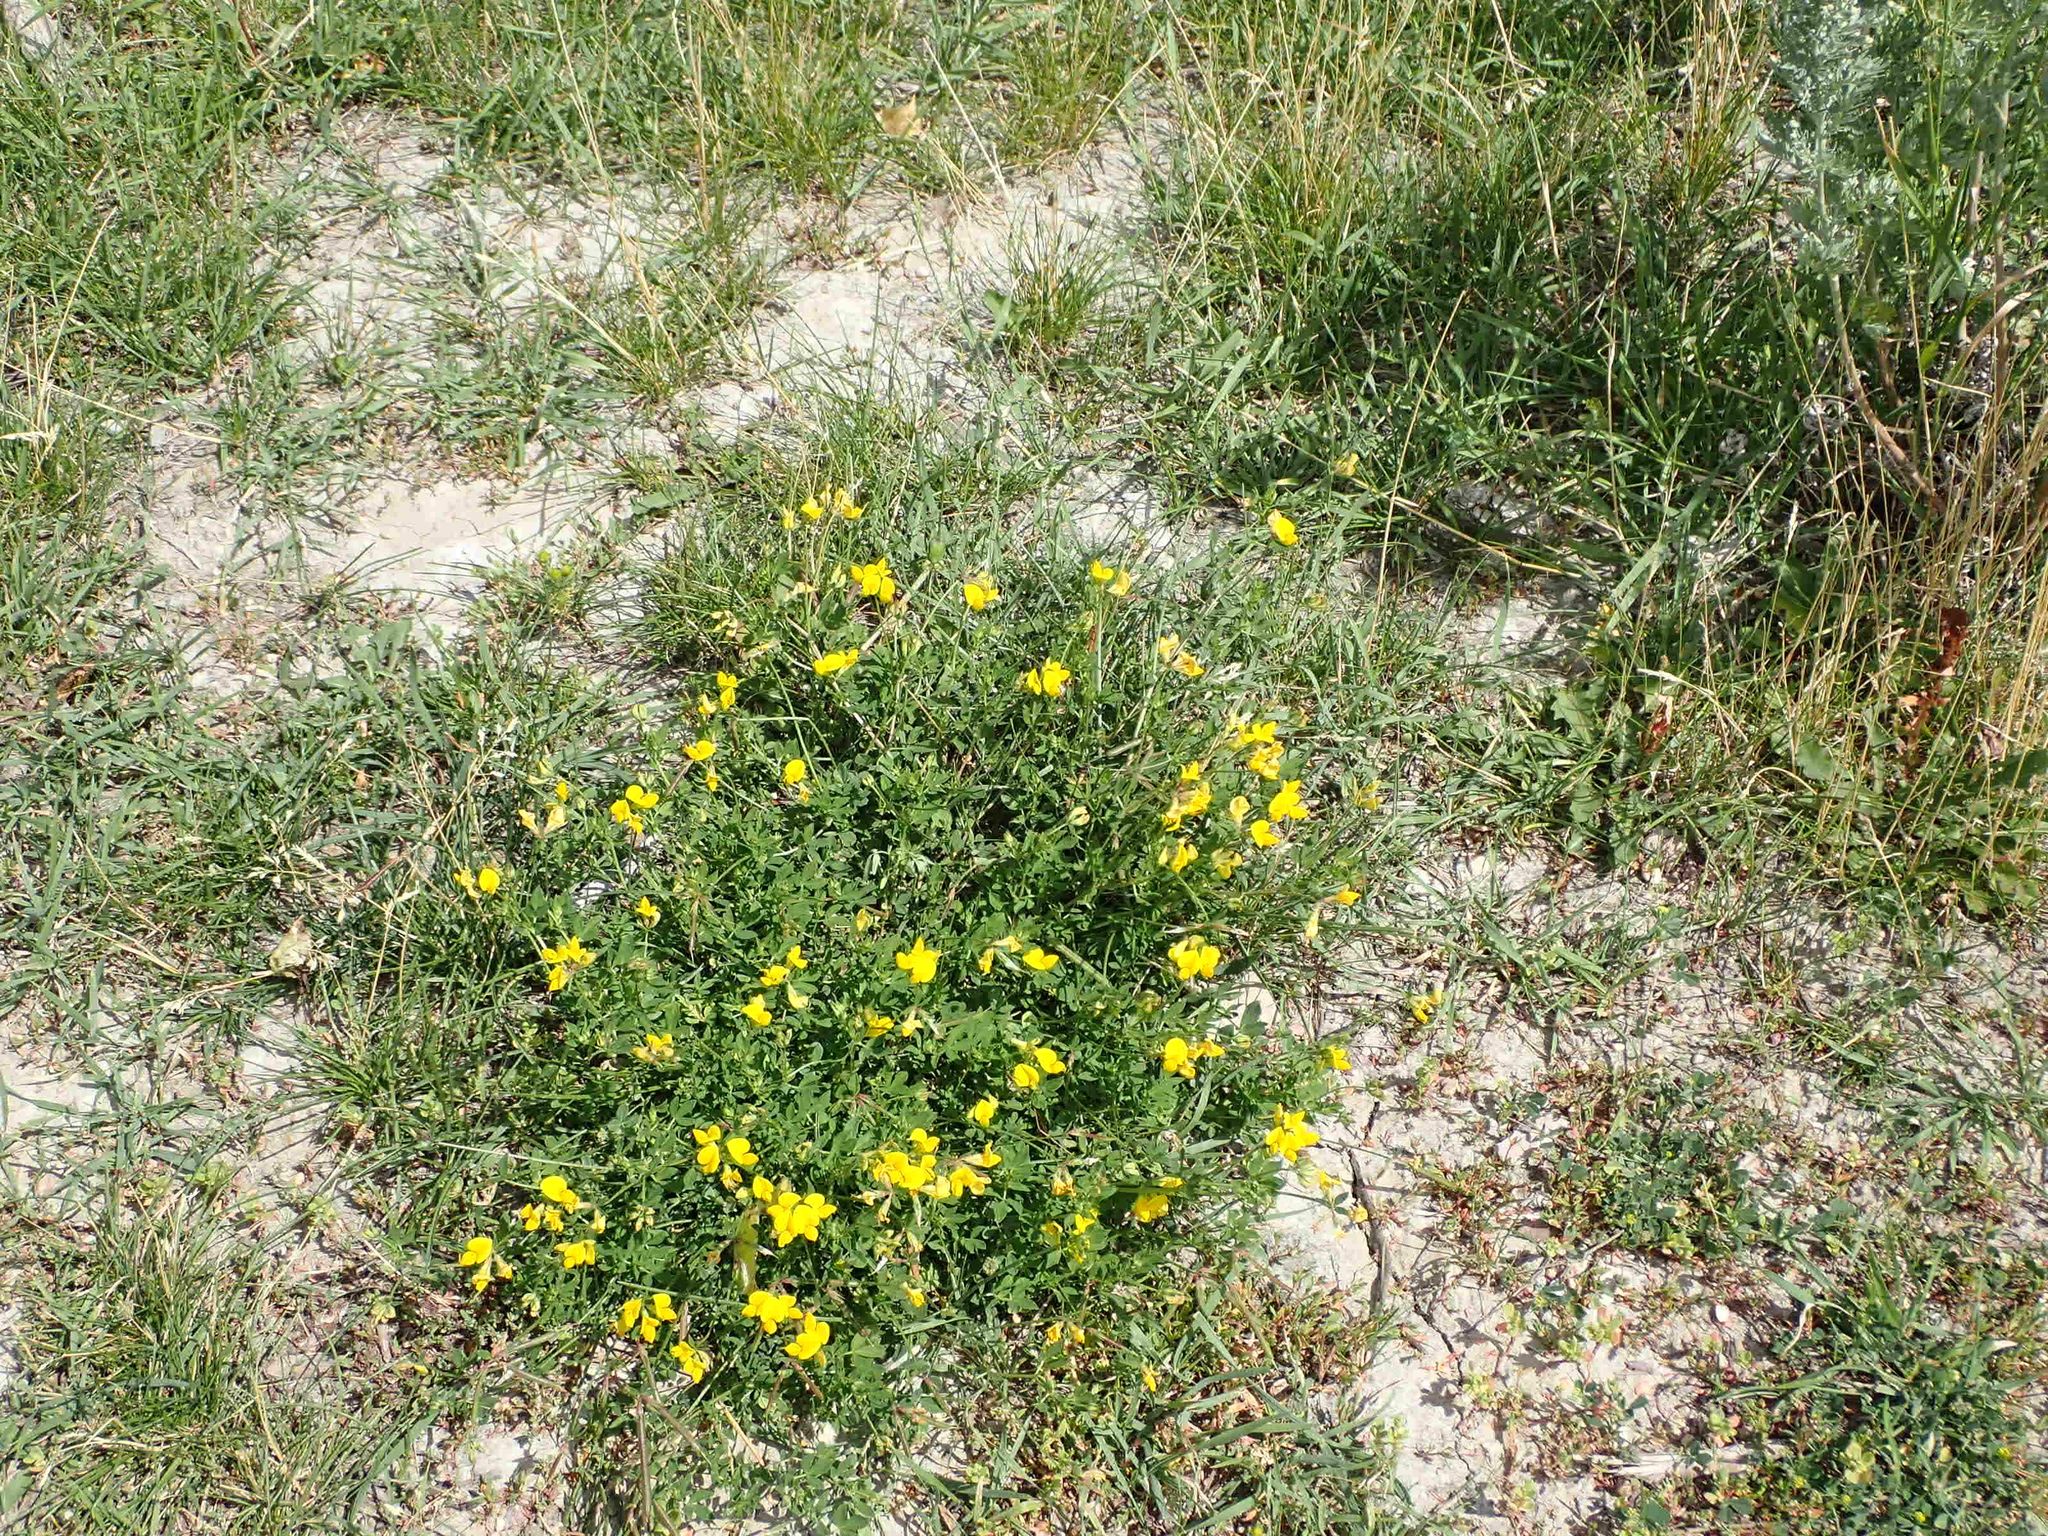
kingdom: Plantae
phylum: Tracheophyta
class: Magnoliopsida
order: Fabales
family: Fabaceae
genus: Lotus
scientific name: Lotus corniculatus
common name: Common bird's-foot-trefoil
